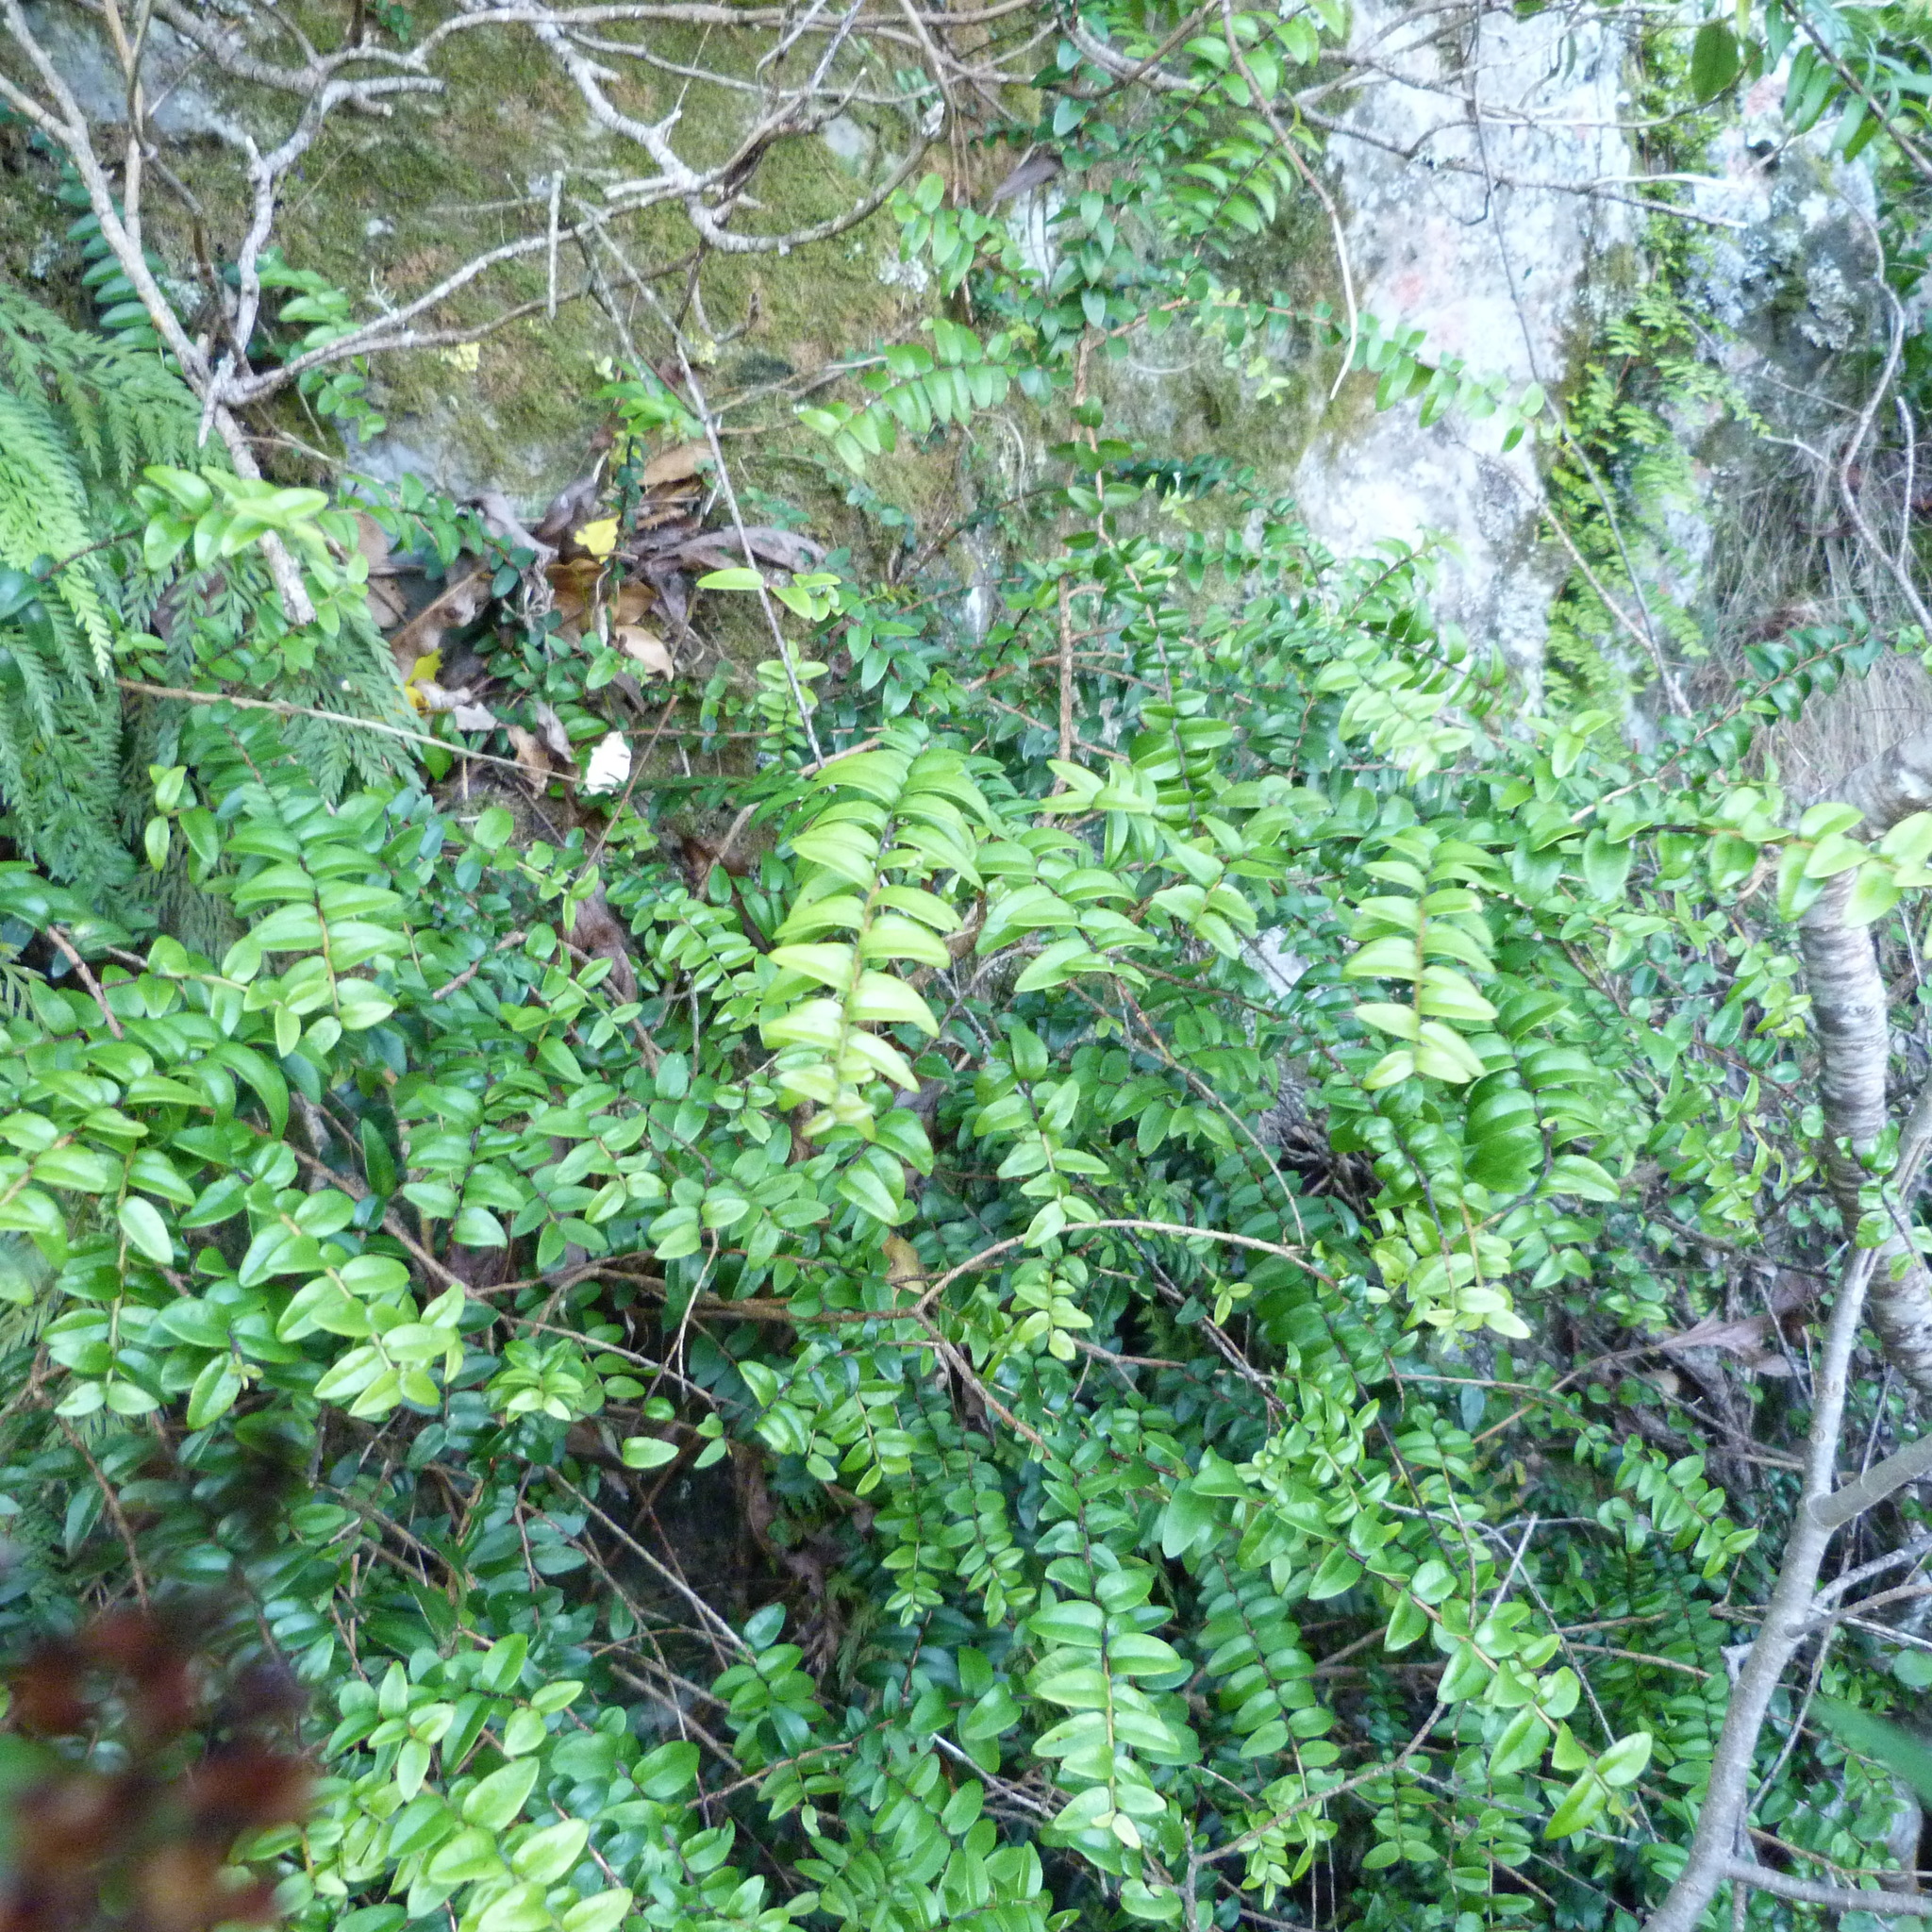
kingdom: Plantae
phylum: Tracheophyta
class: Magnoliopsida
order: Myrtales
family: Myrtaceae
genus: Metrosideros
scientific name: Metrosideros diffusa
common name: Small ratavine
